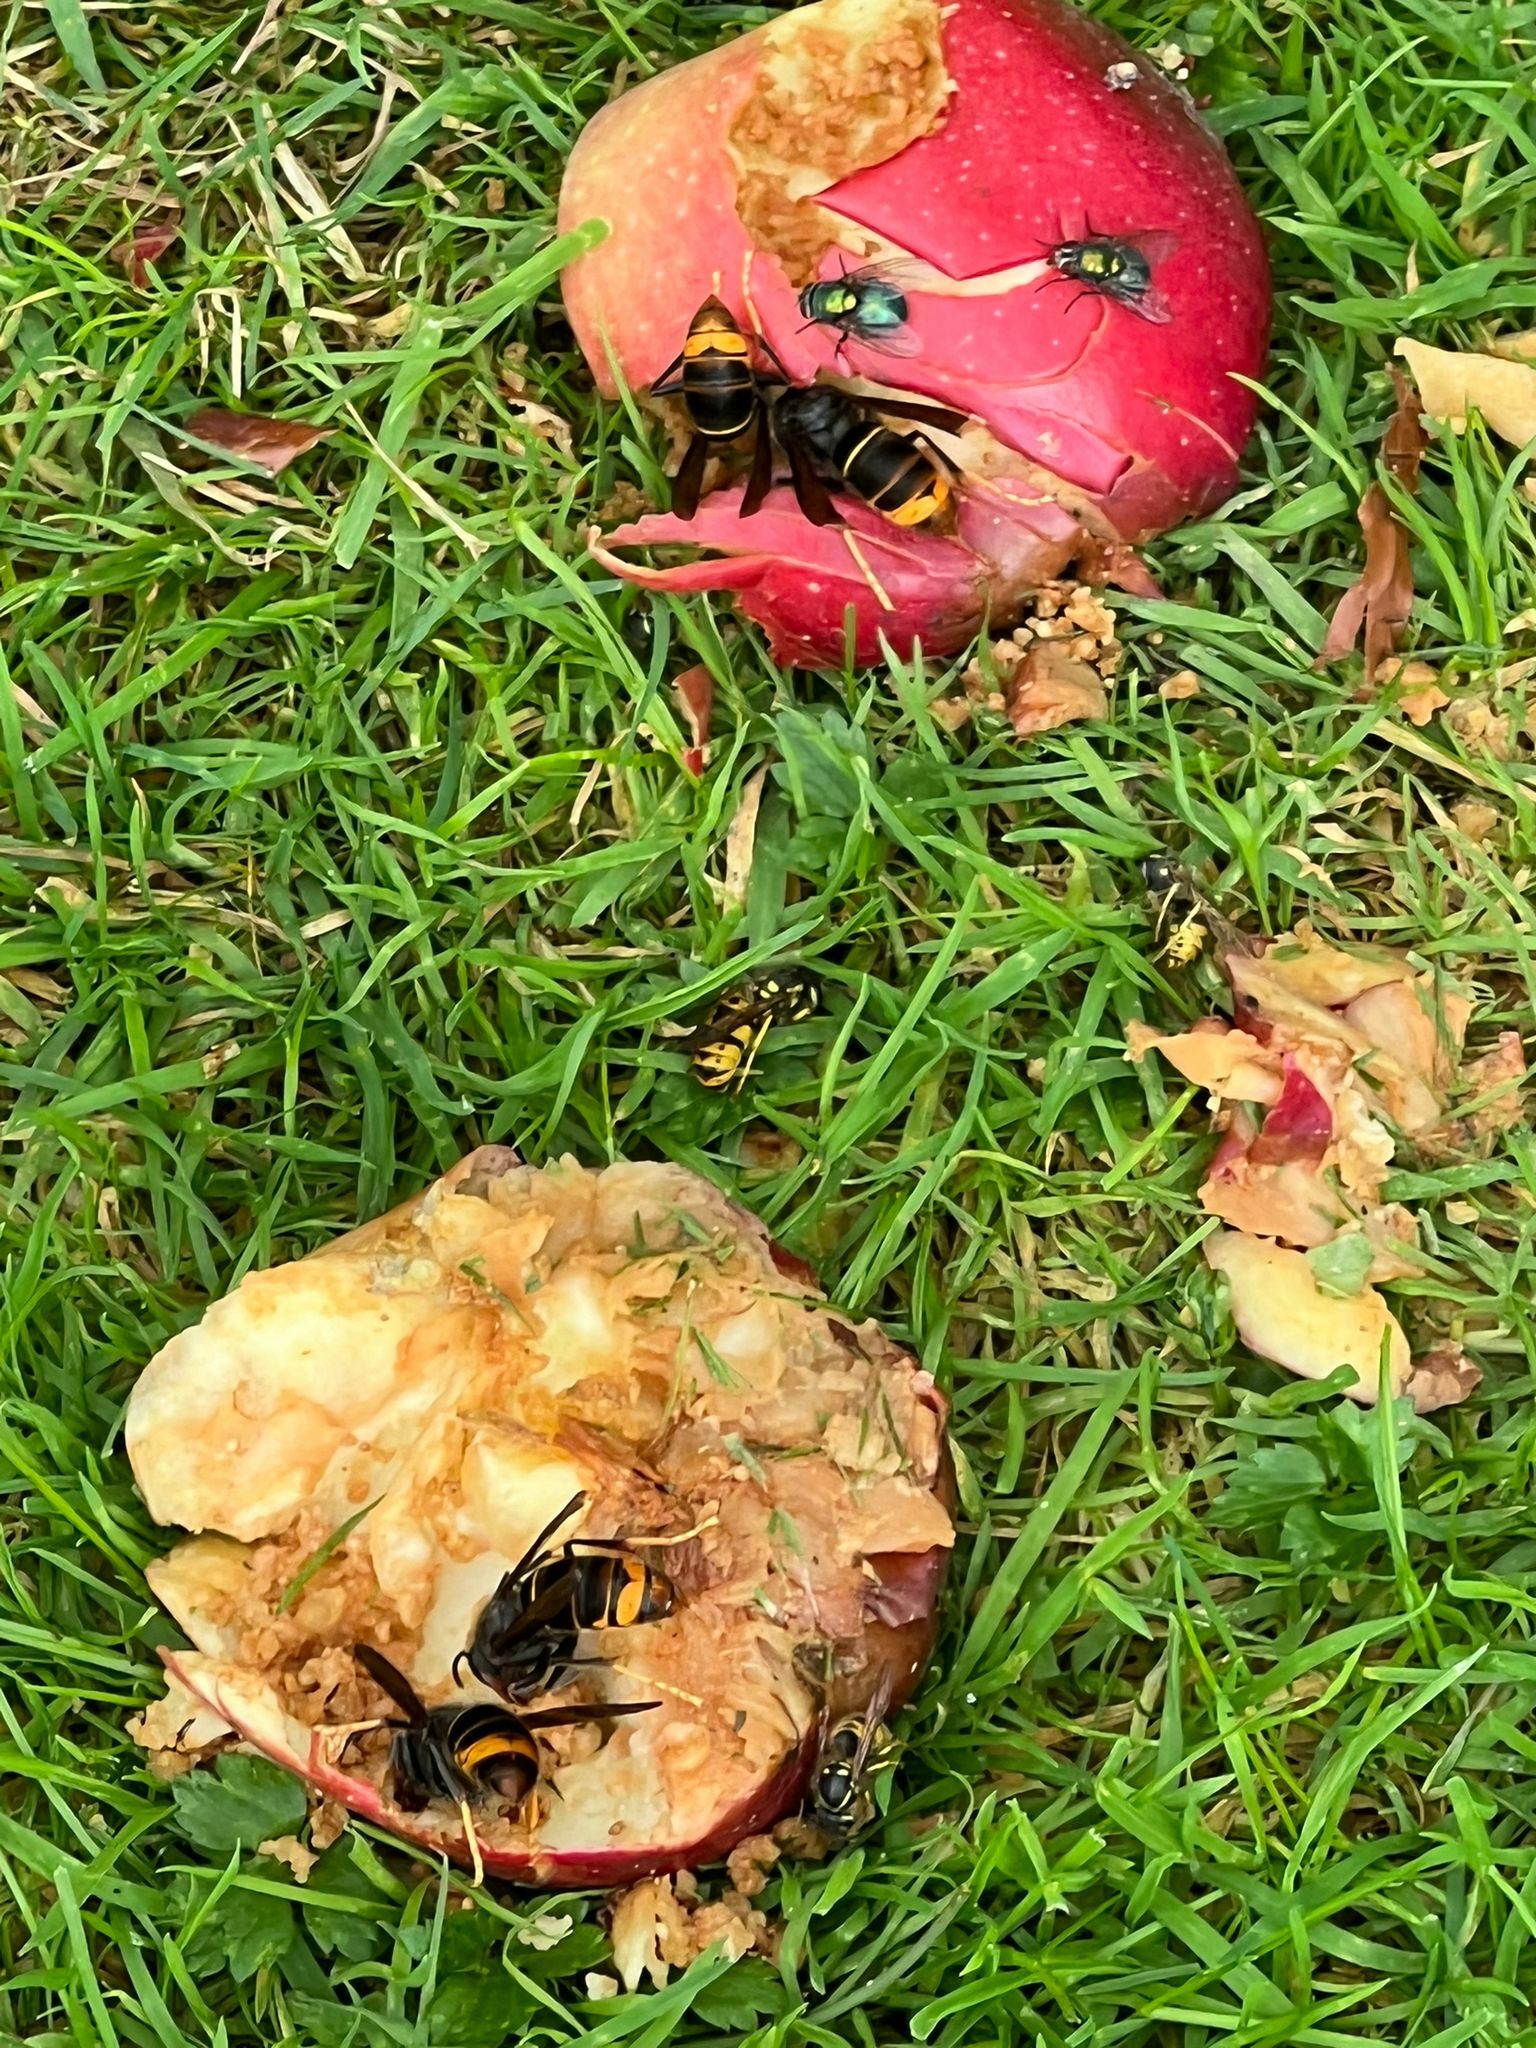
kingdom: Animalia
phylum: Arthropoda
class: Insecta
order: Hymenoptera
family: Vespidae
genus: Vespa
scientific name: Vespa velutina
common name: Asian hornet
